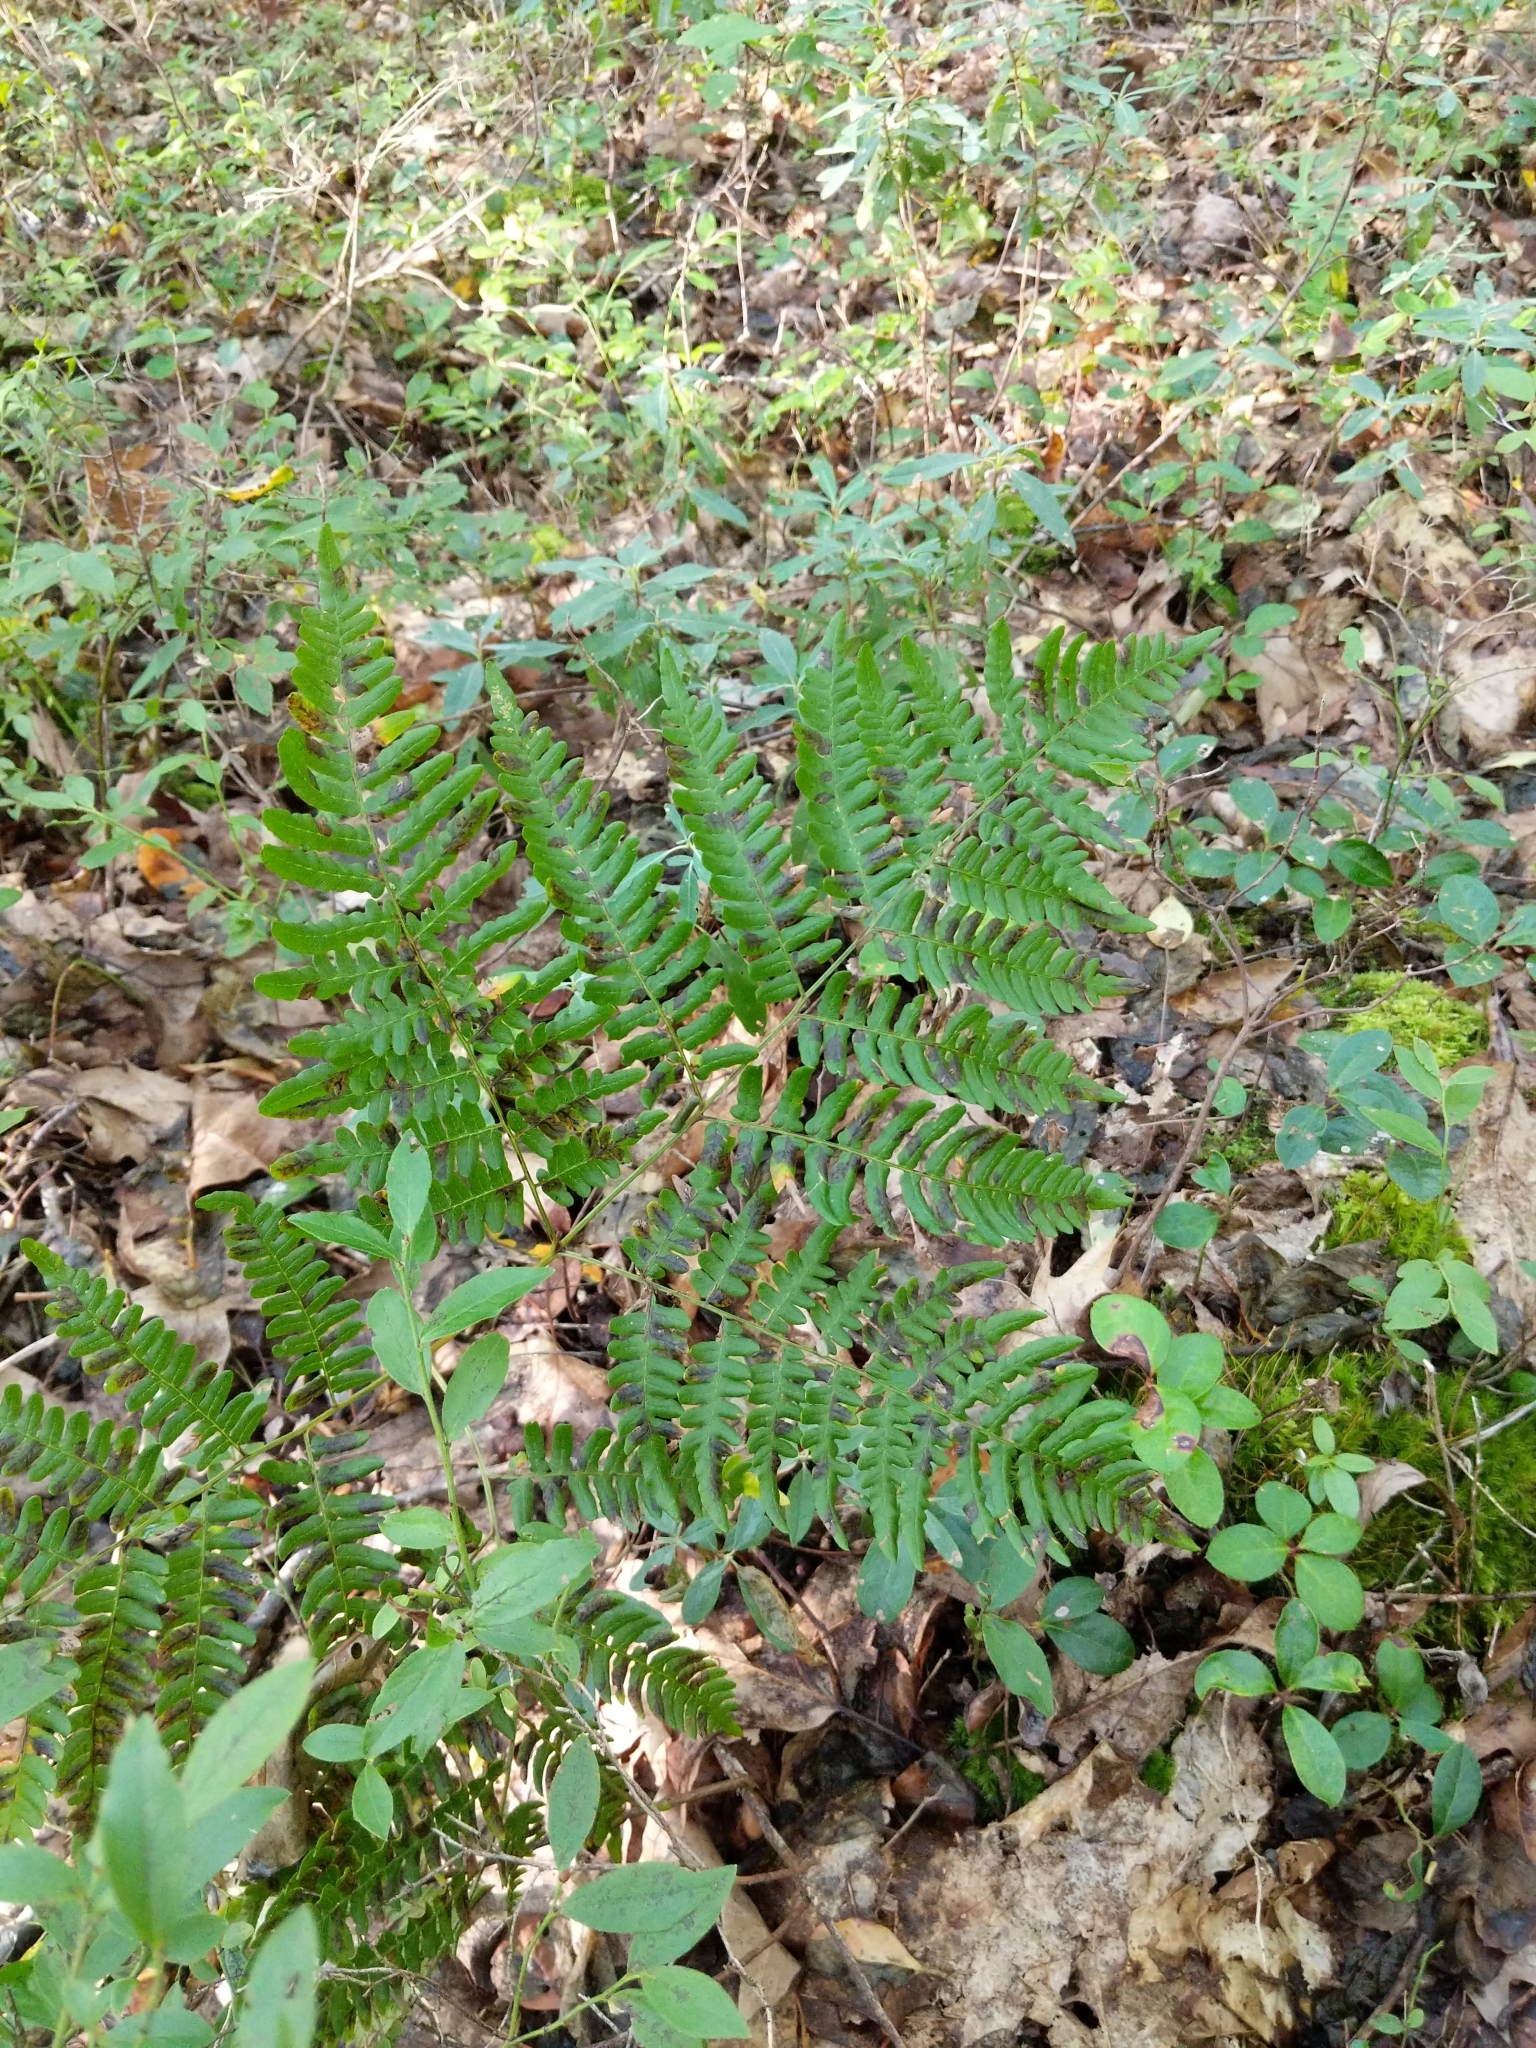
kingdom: Plantae
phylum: Tracheophyta
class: Polypodiopsida
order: Polypodiales
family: Dennstaedtiaceae
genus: Pteridium
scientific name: Pteridium aquilinum
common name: Bracken
